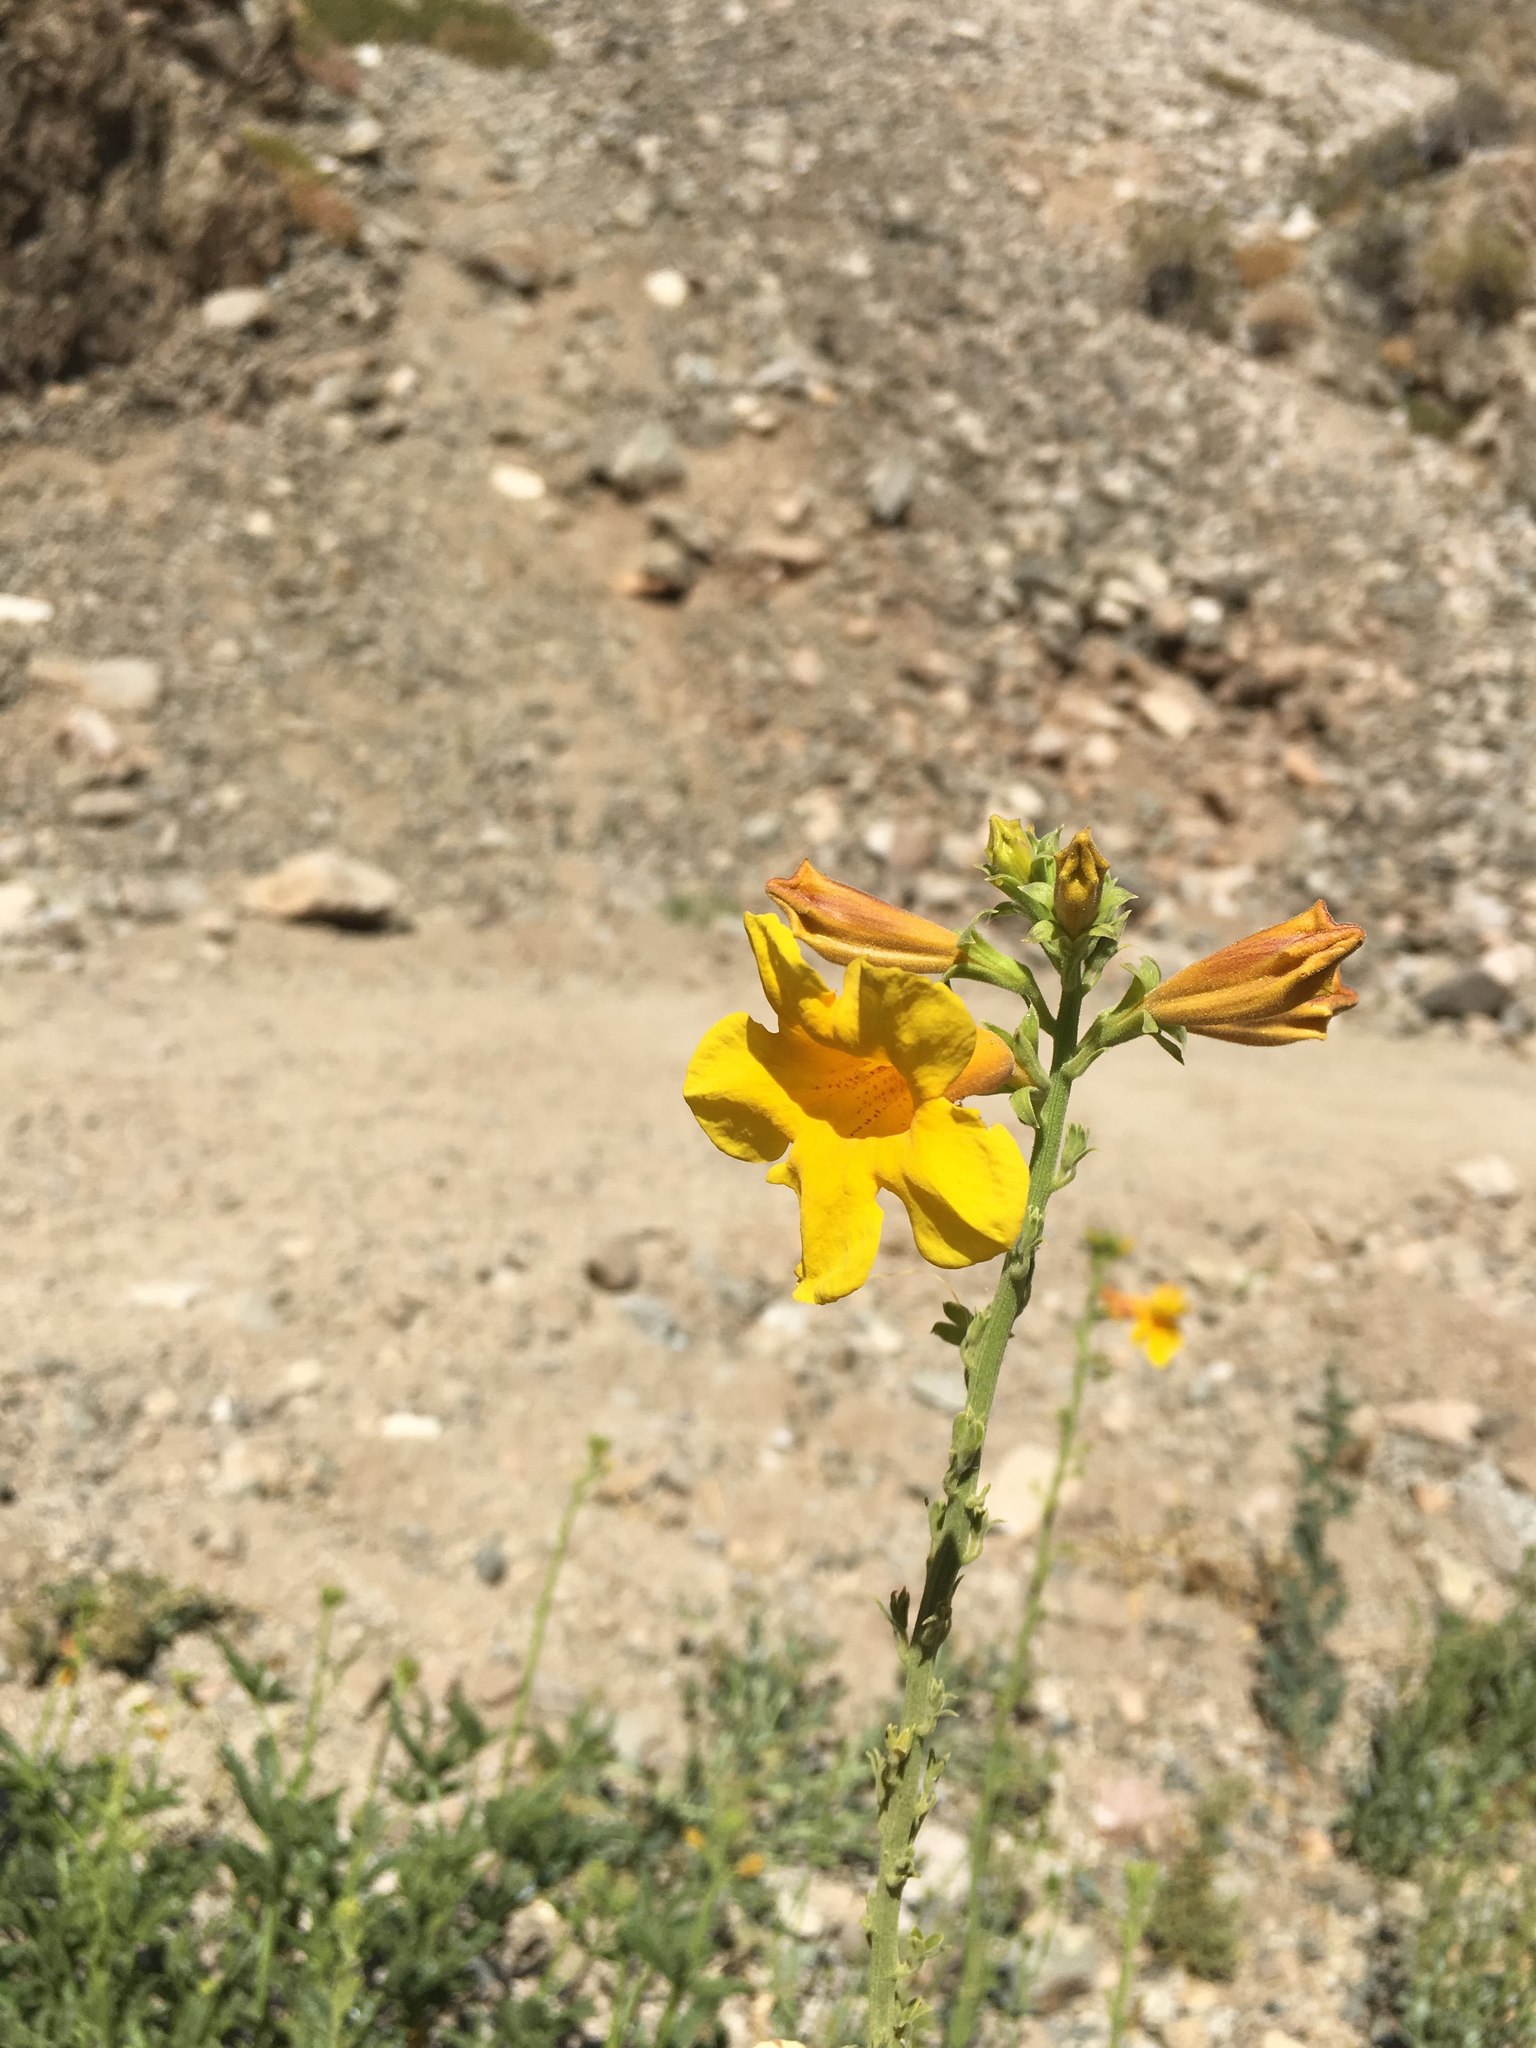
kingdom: Plantae
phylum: Tracheophyta
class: Magnoliopsida
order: Lamiales
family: Bignoniaceae
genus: Argylia
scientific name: Argylia radiata
